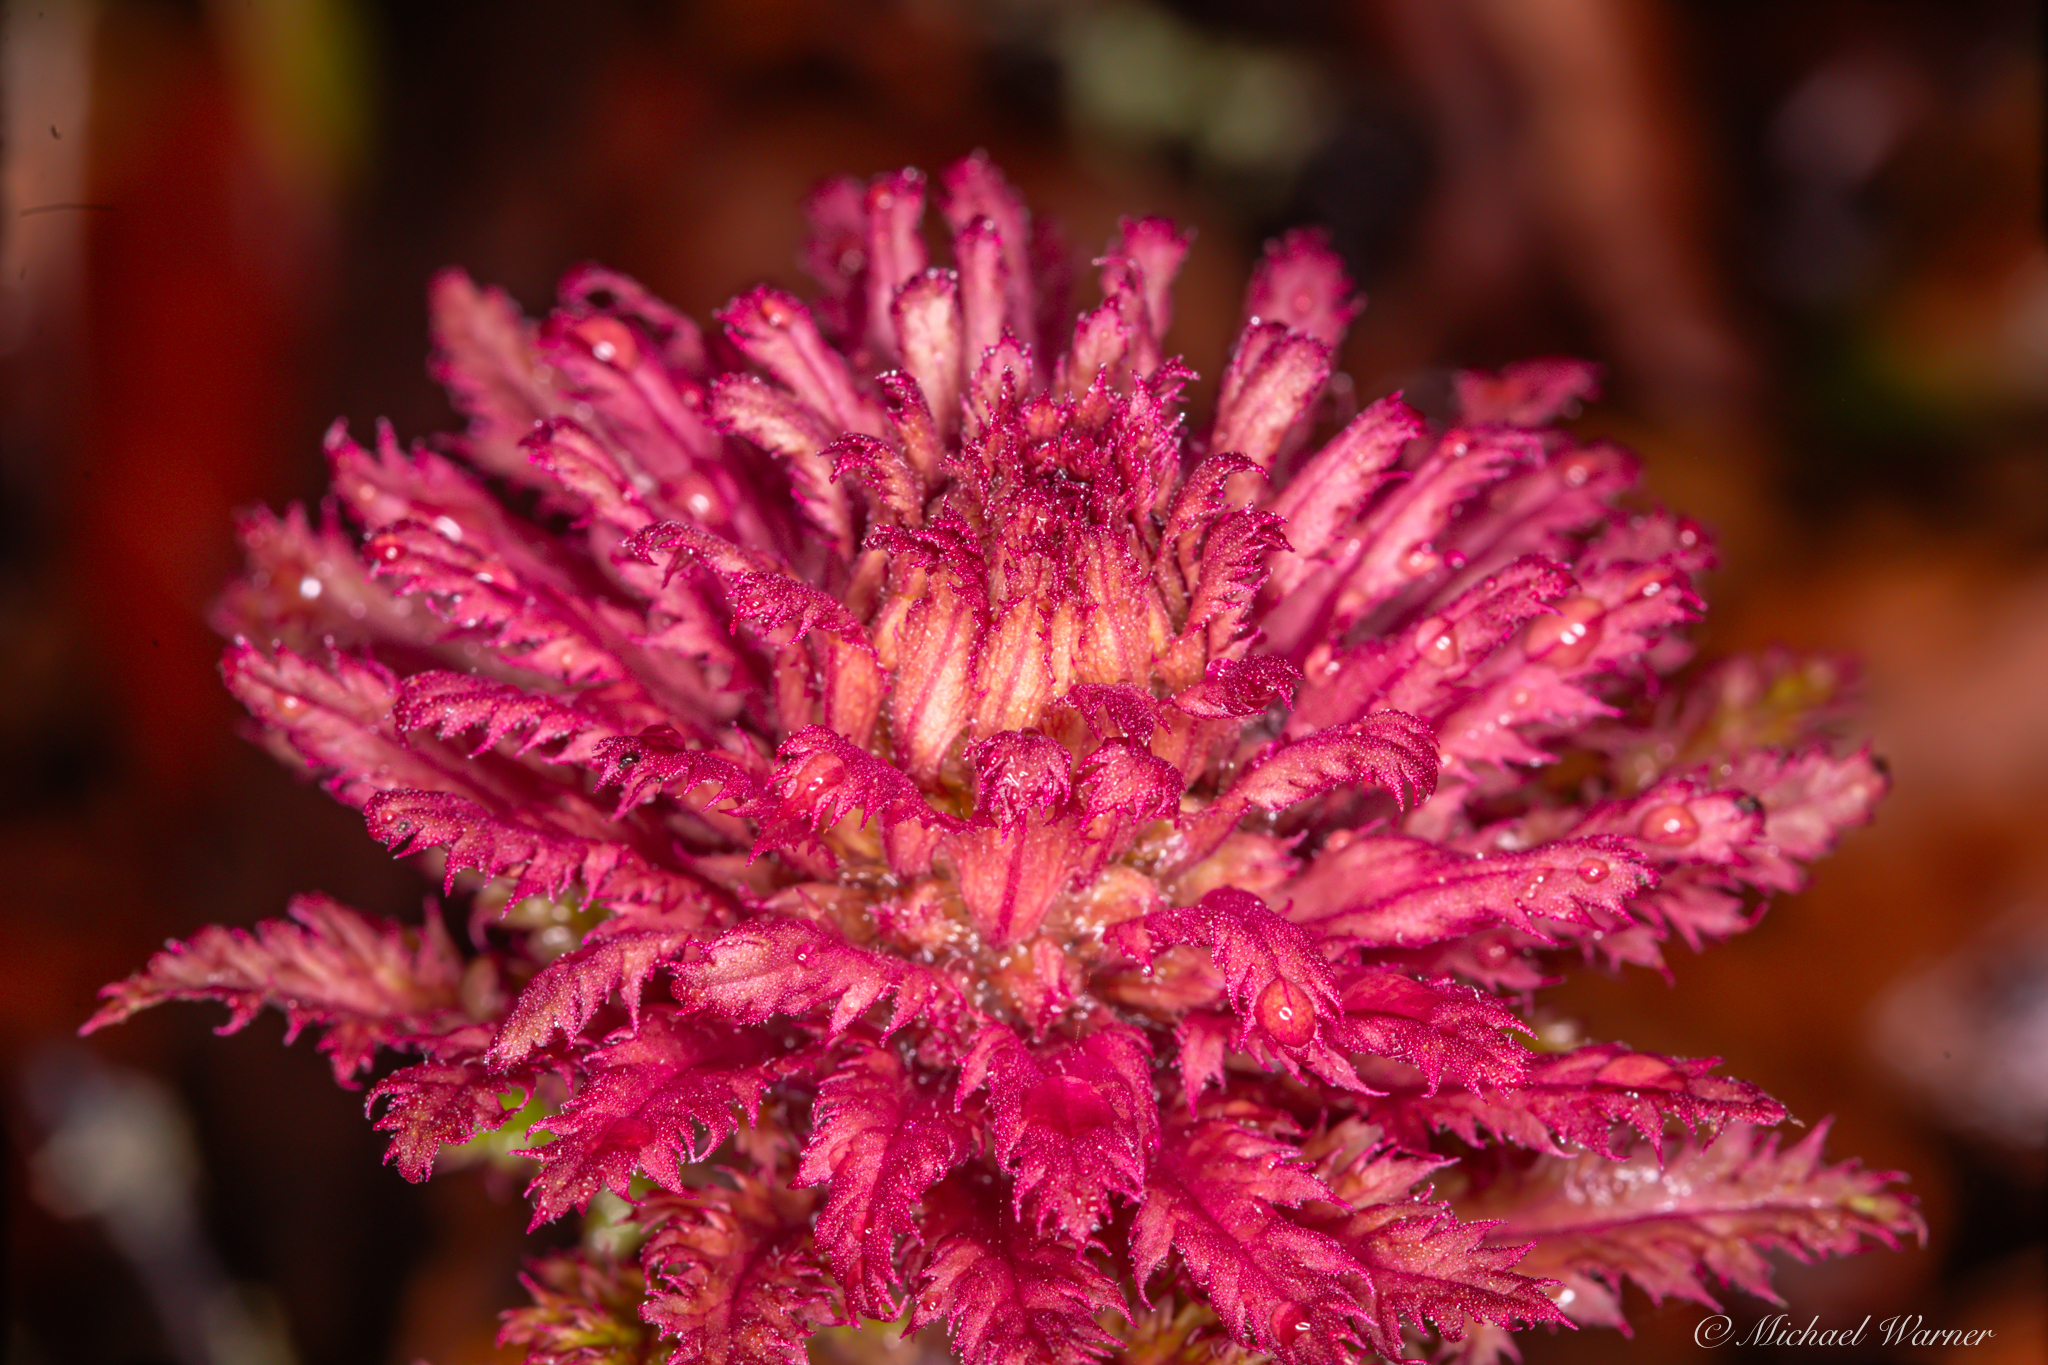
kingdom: Plantae
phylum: Tracheophyta
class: Magnoliopsida
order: Lamiales
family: Orobanchaceae
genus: Pedicularis
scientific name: Pedicularis densiflora
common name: Indian warrior
